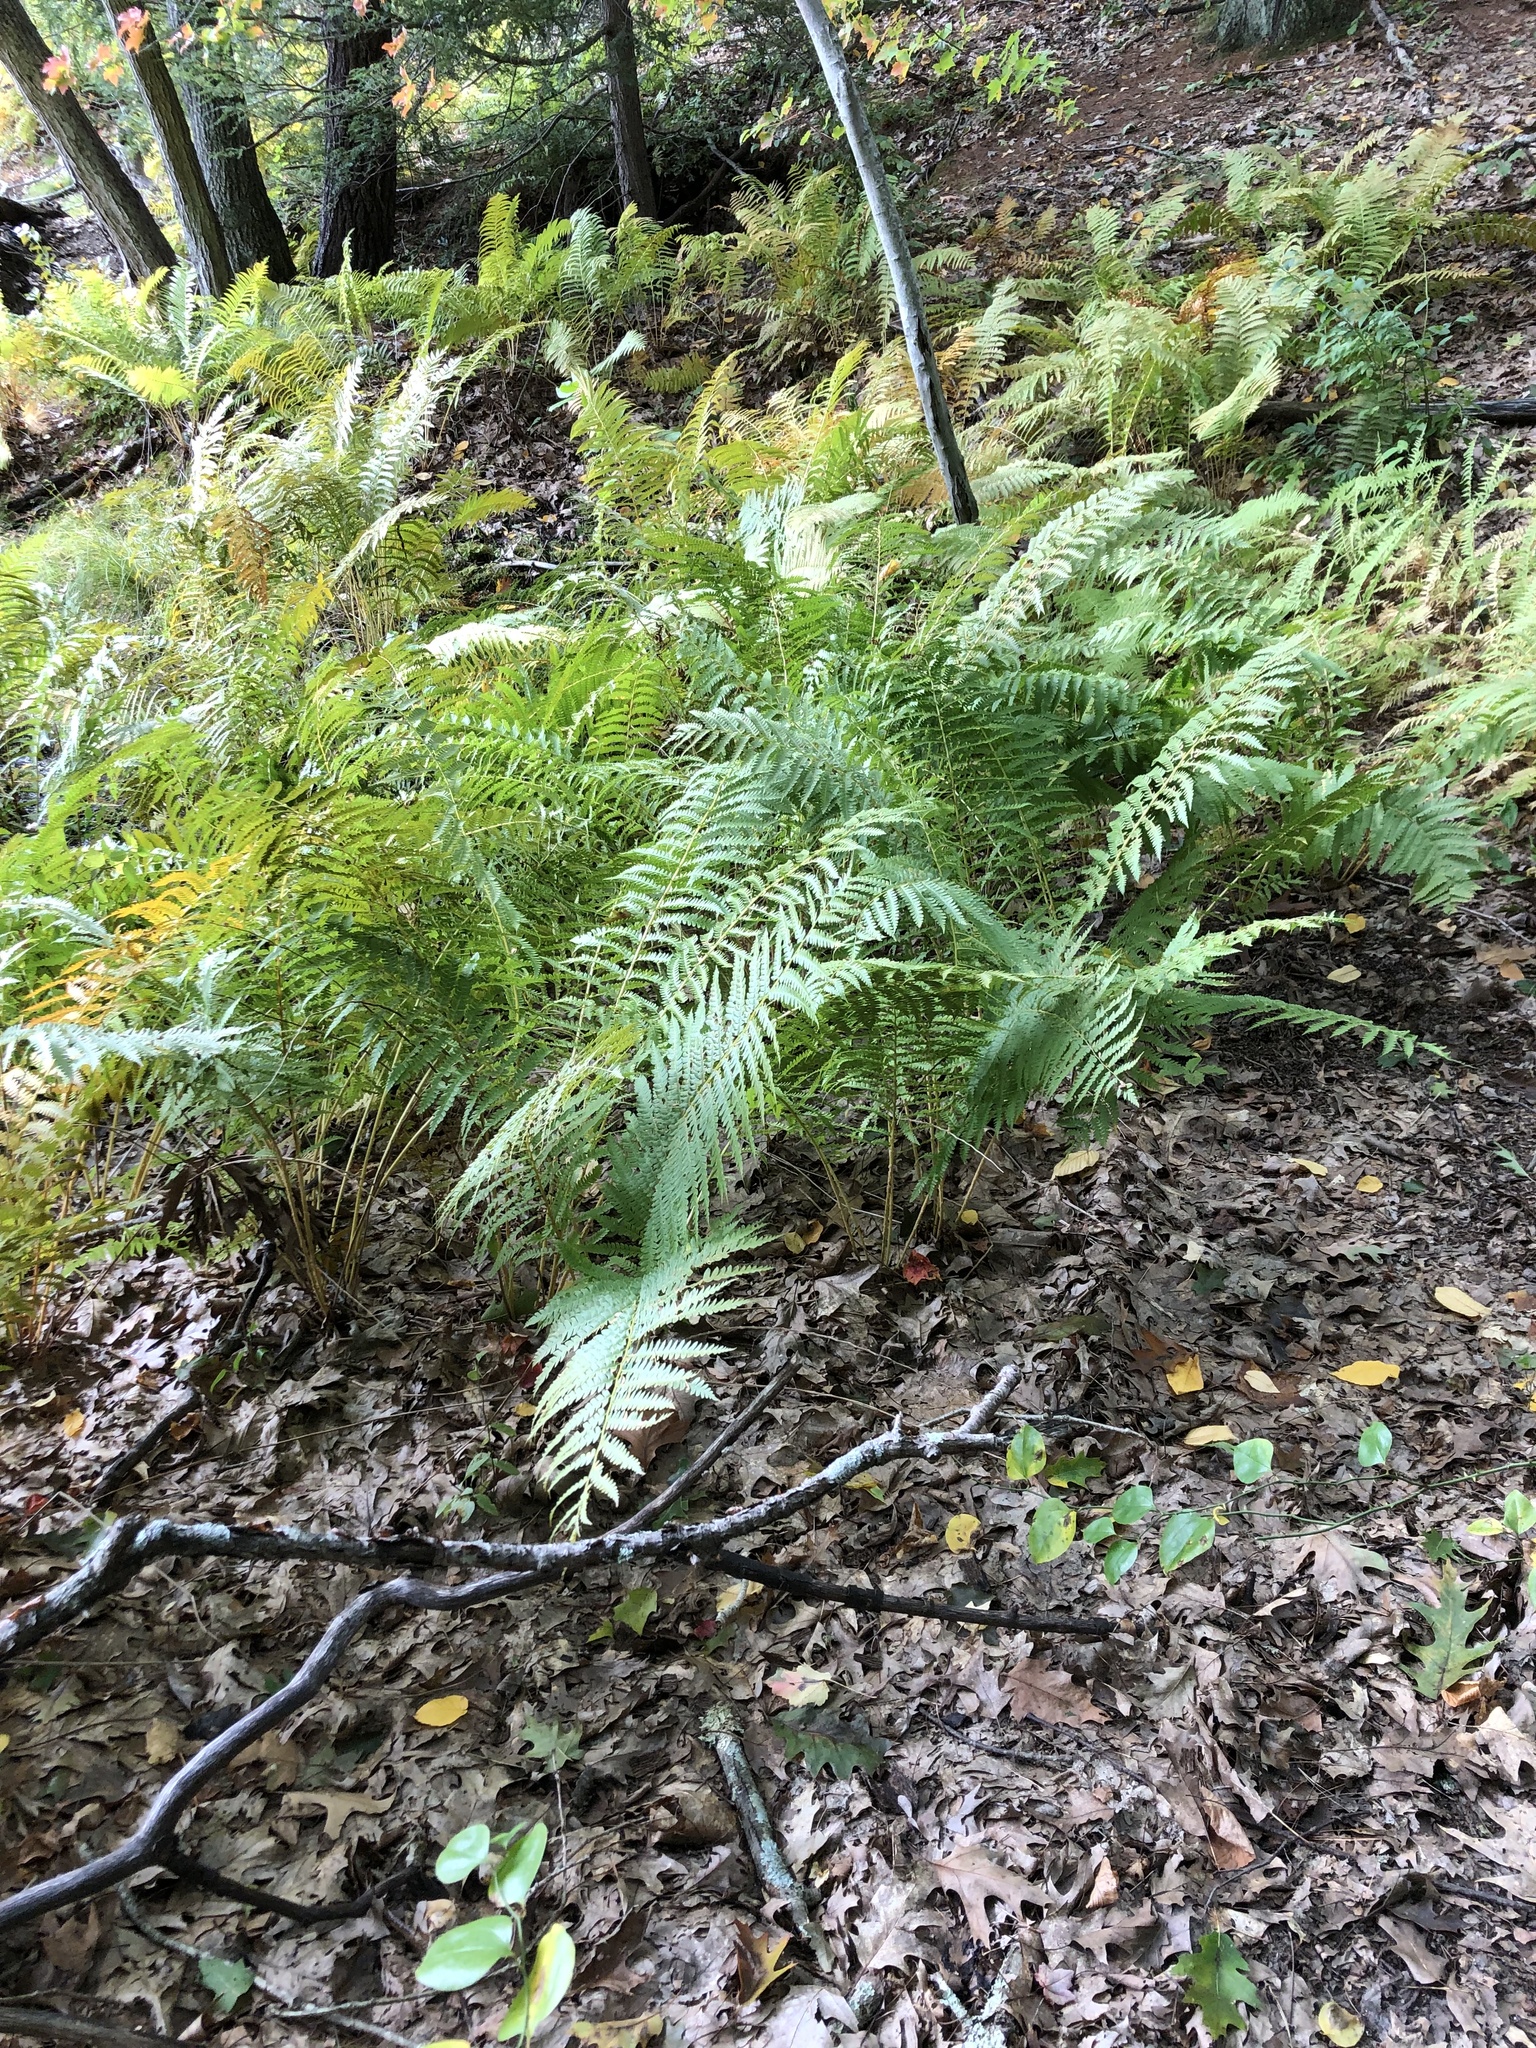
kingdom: Plantae
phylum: Tracheophyta
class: Polypodiopsida
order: Osmundales
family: Osmundaceae
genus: Osmundastrum
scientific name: Osmundastrum cinnamomeum
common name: Cinnamon fern
